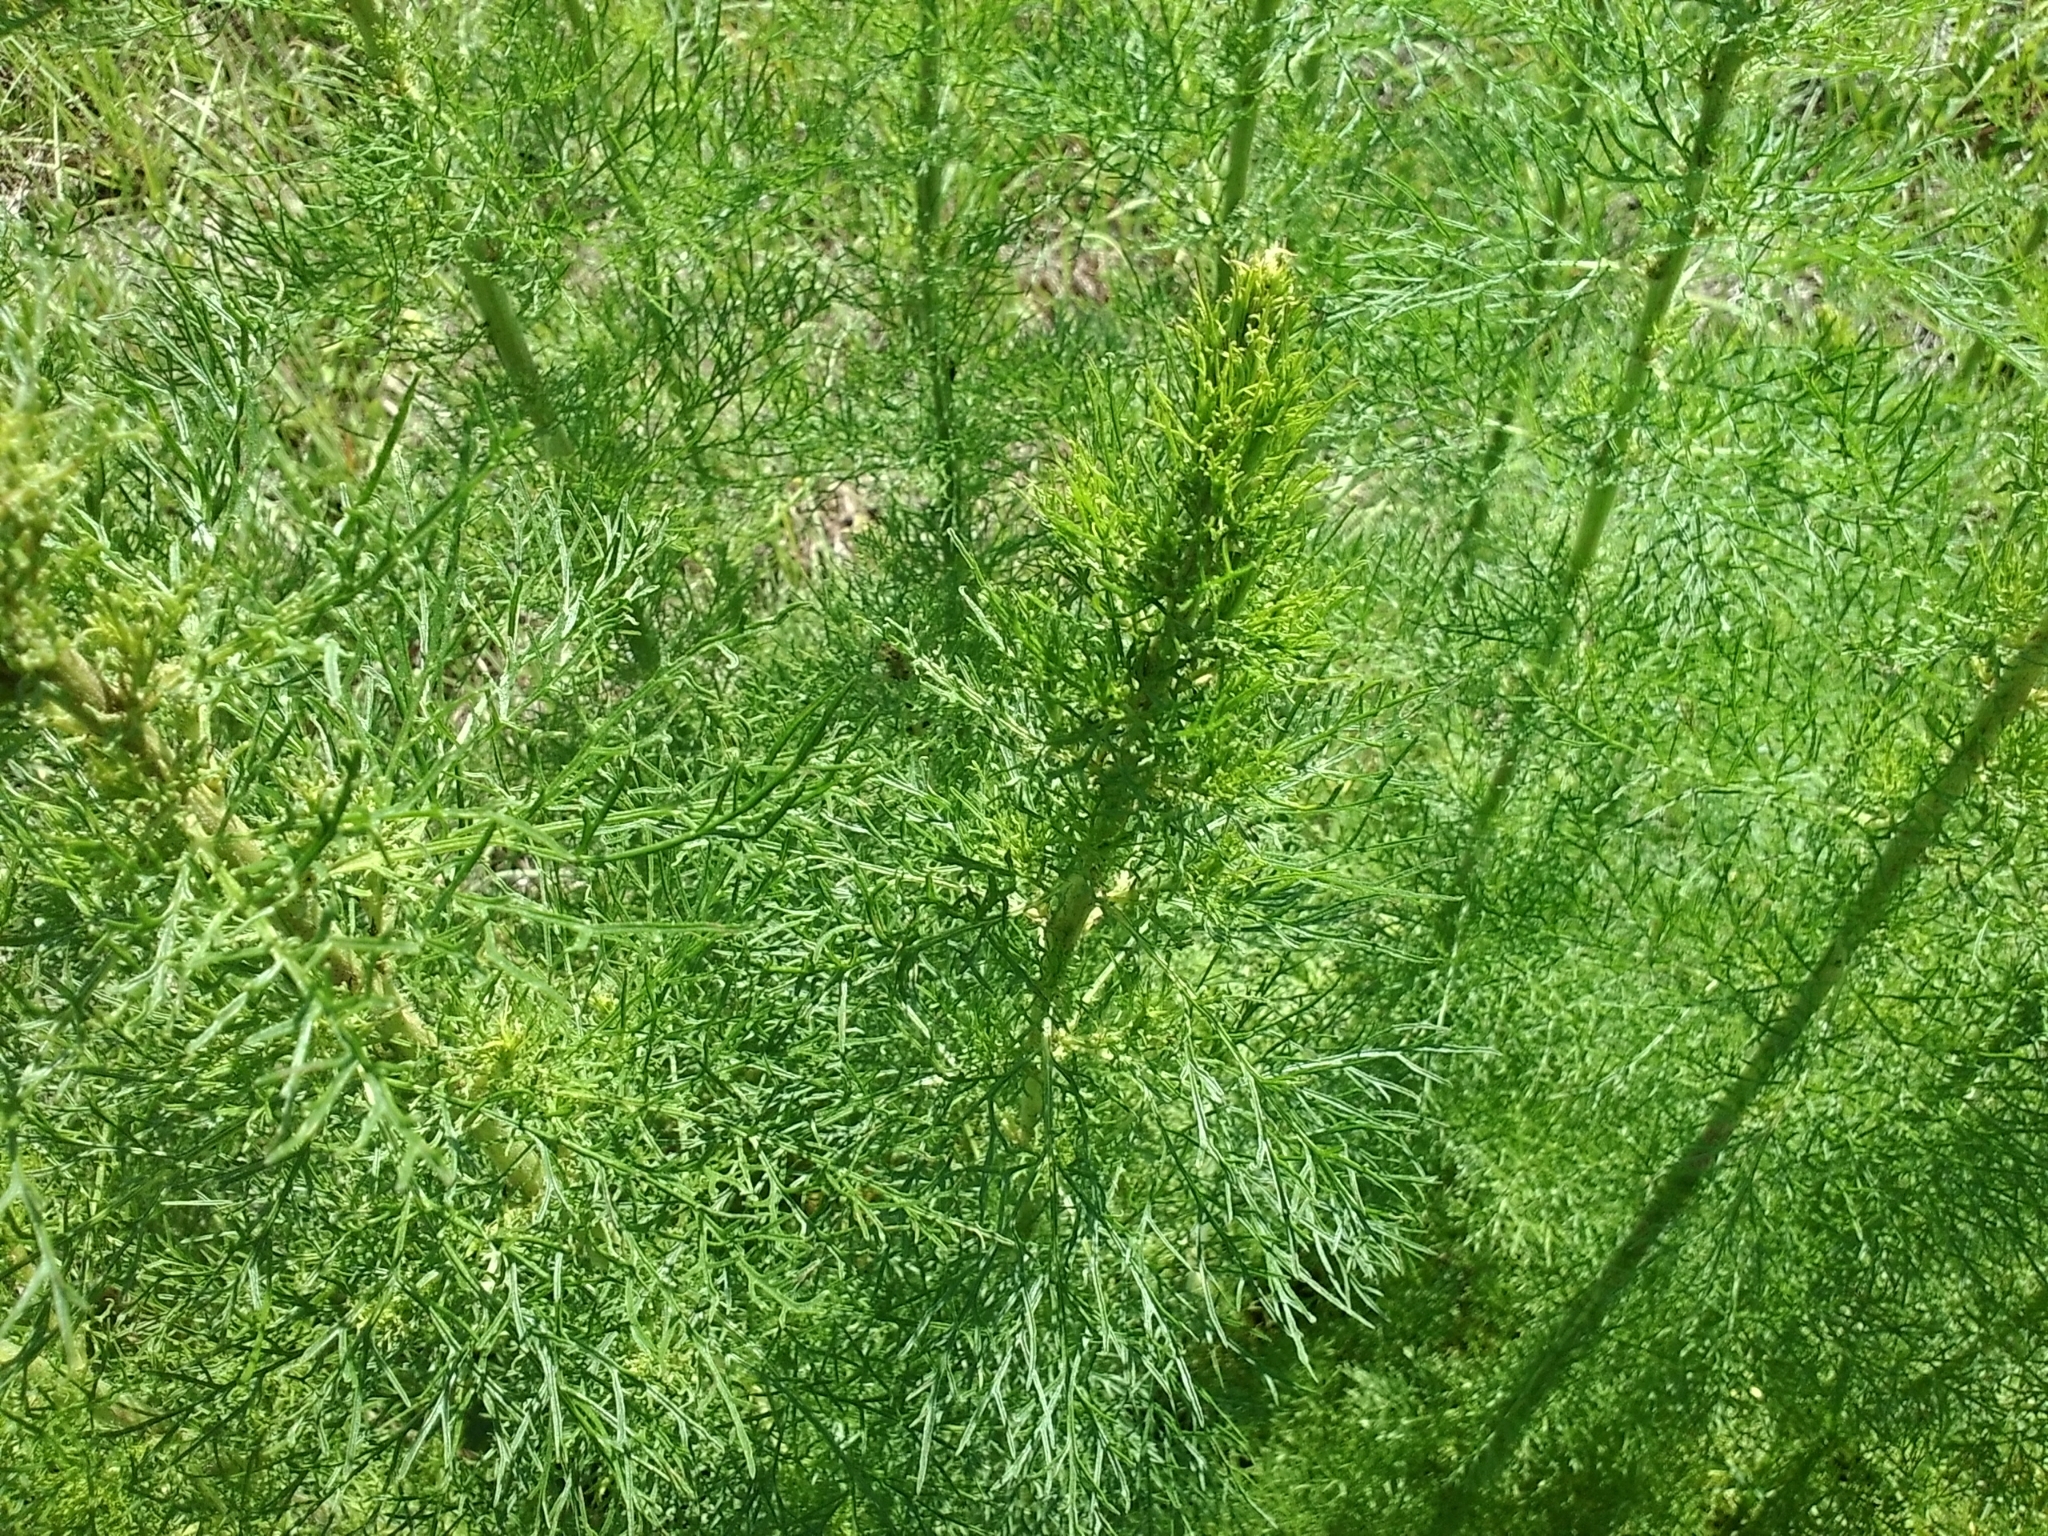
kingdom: Plantae
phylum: Tracheophyta
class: Magnoliopsida
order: Asterales
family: Asteraceae
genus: Eupatorium
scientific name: Eupatorium capillifolium
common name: Dog-fennel
